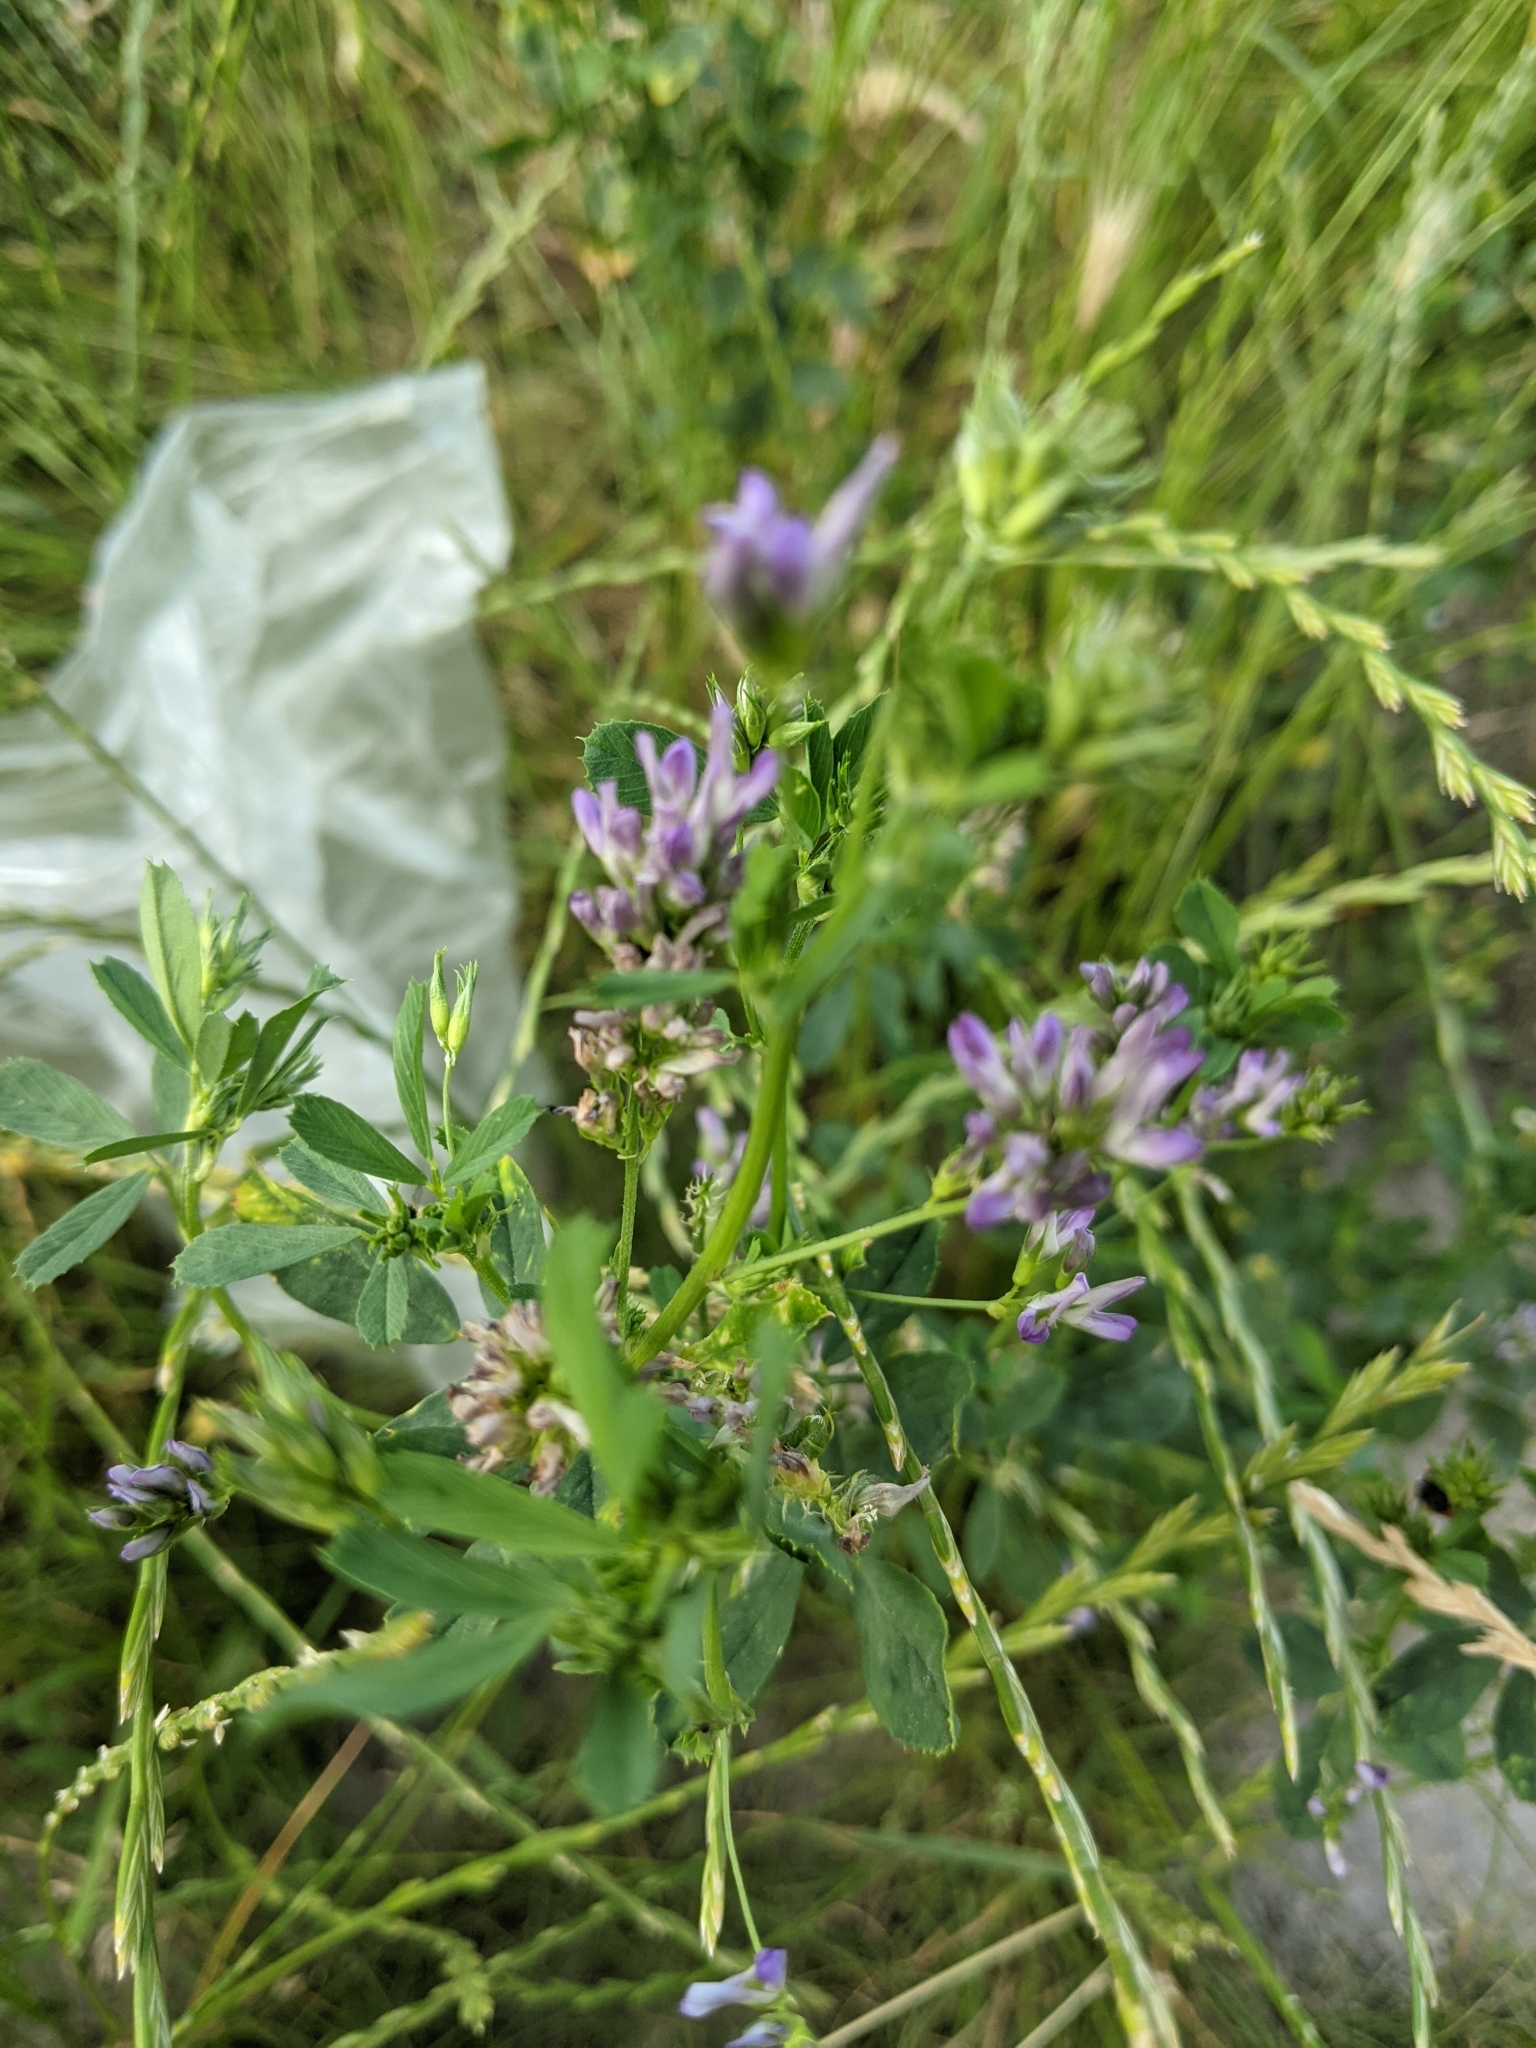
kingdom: Plantae
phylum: Tracheophyta
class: Magnoliopsida
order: Fabales
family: Fabaceae
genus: Medicago
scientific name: Medicago sativa
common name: Alfalfa
